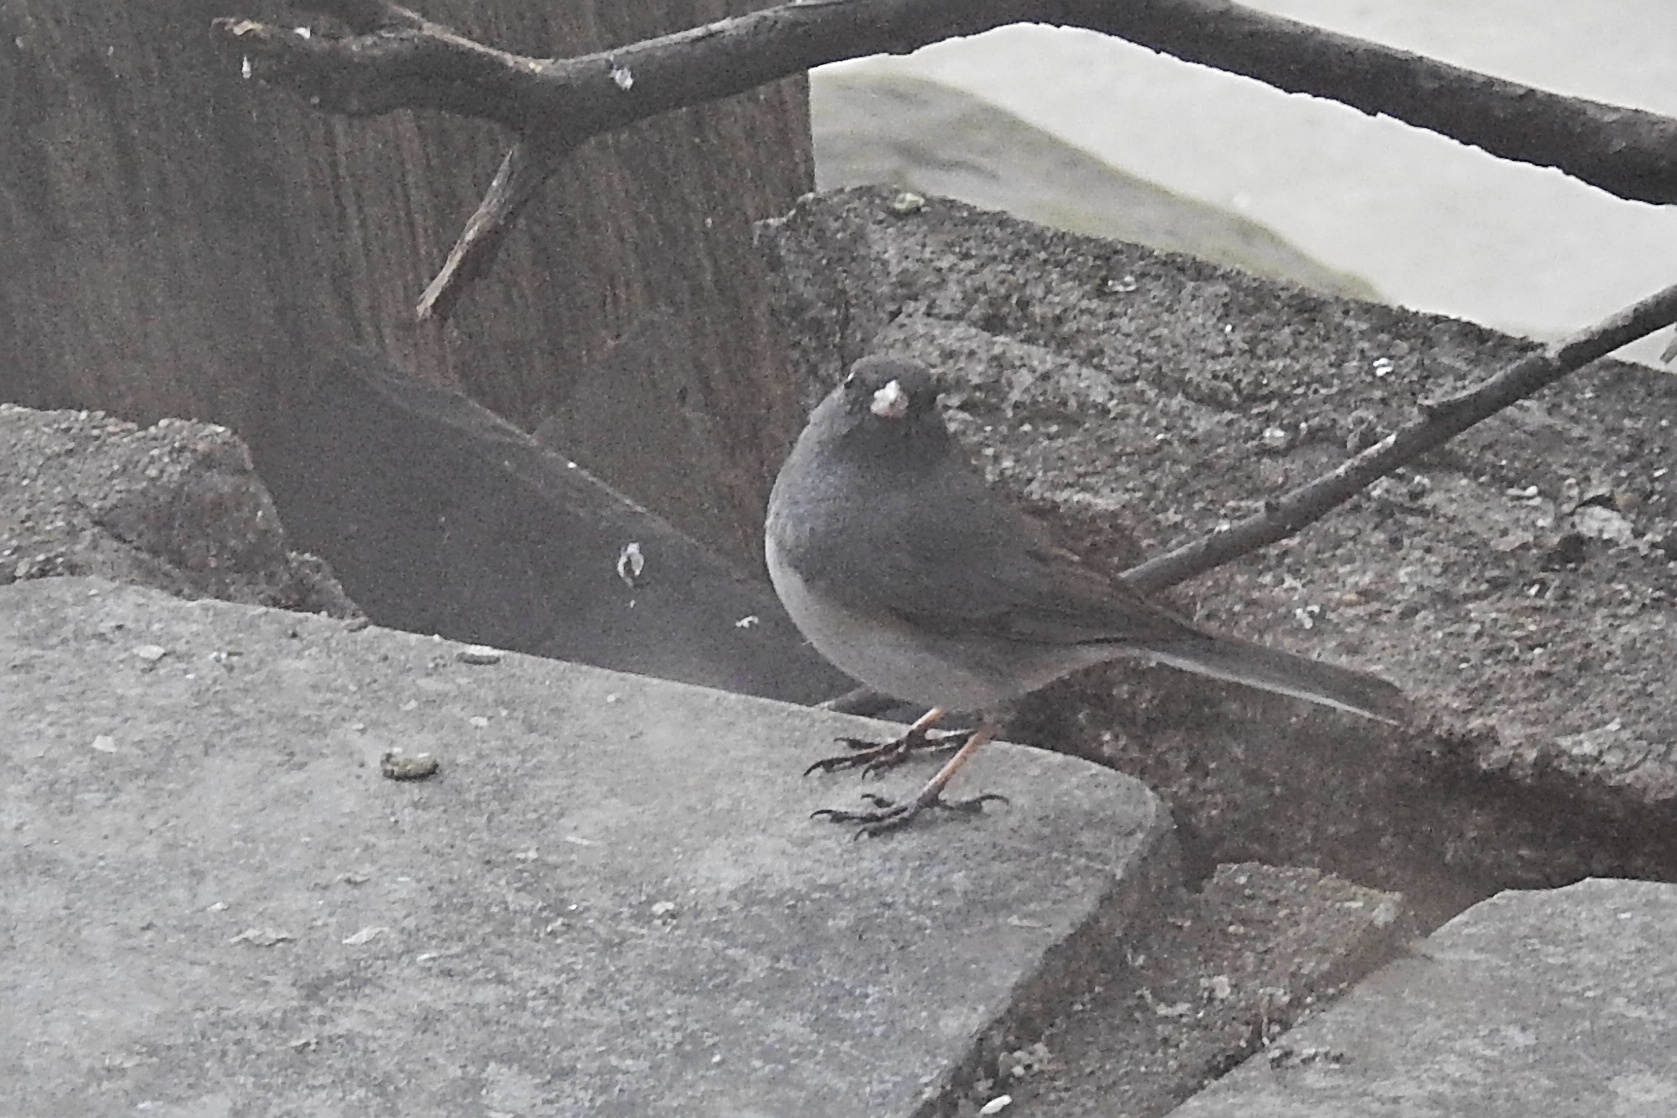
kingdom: Animalia
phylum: Chordata
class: Aves
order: Passeriformes
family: Passerellidae
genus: Junco
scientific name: Junco hyemalis
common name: Dark-eyed junco
